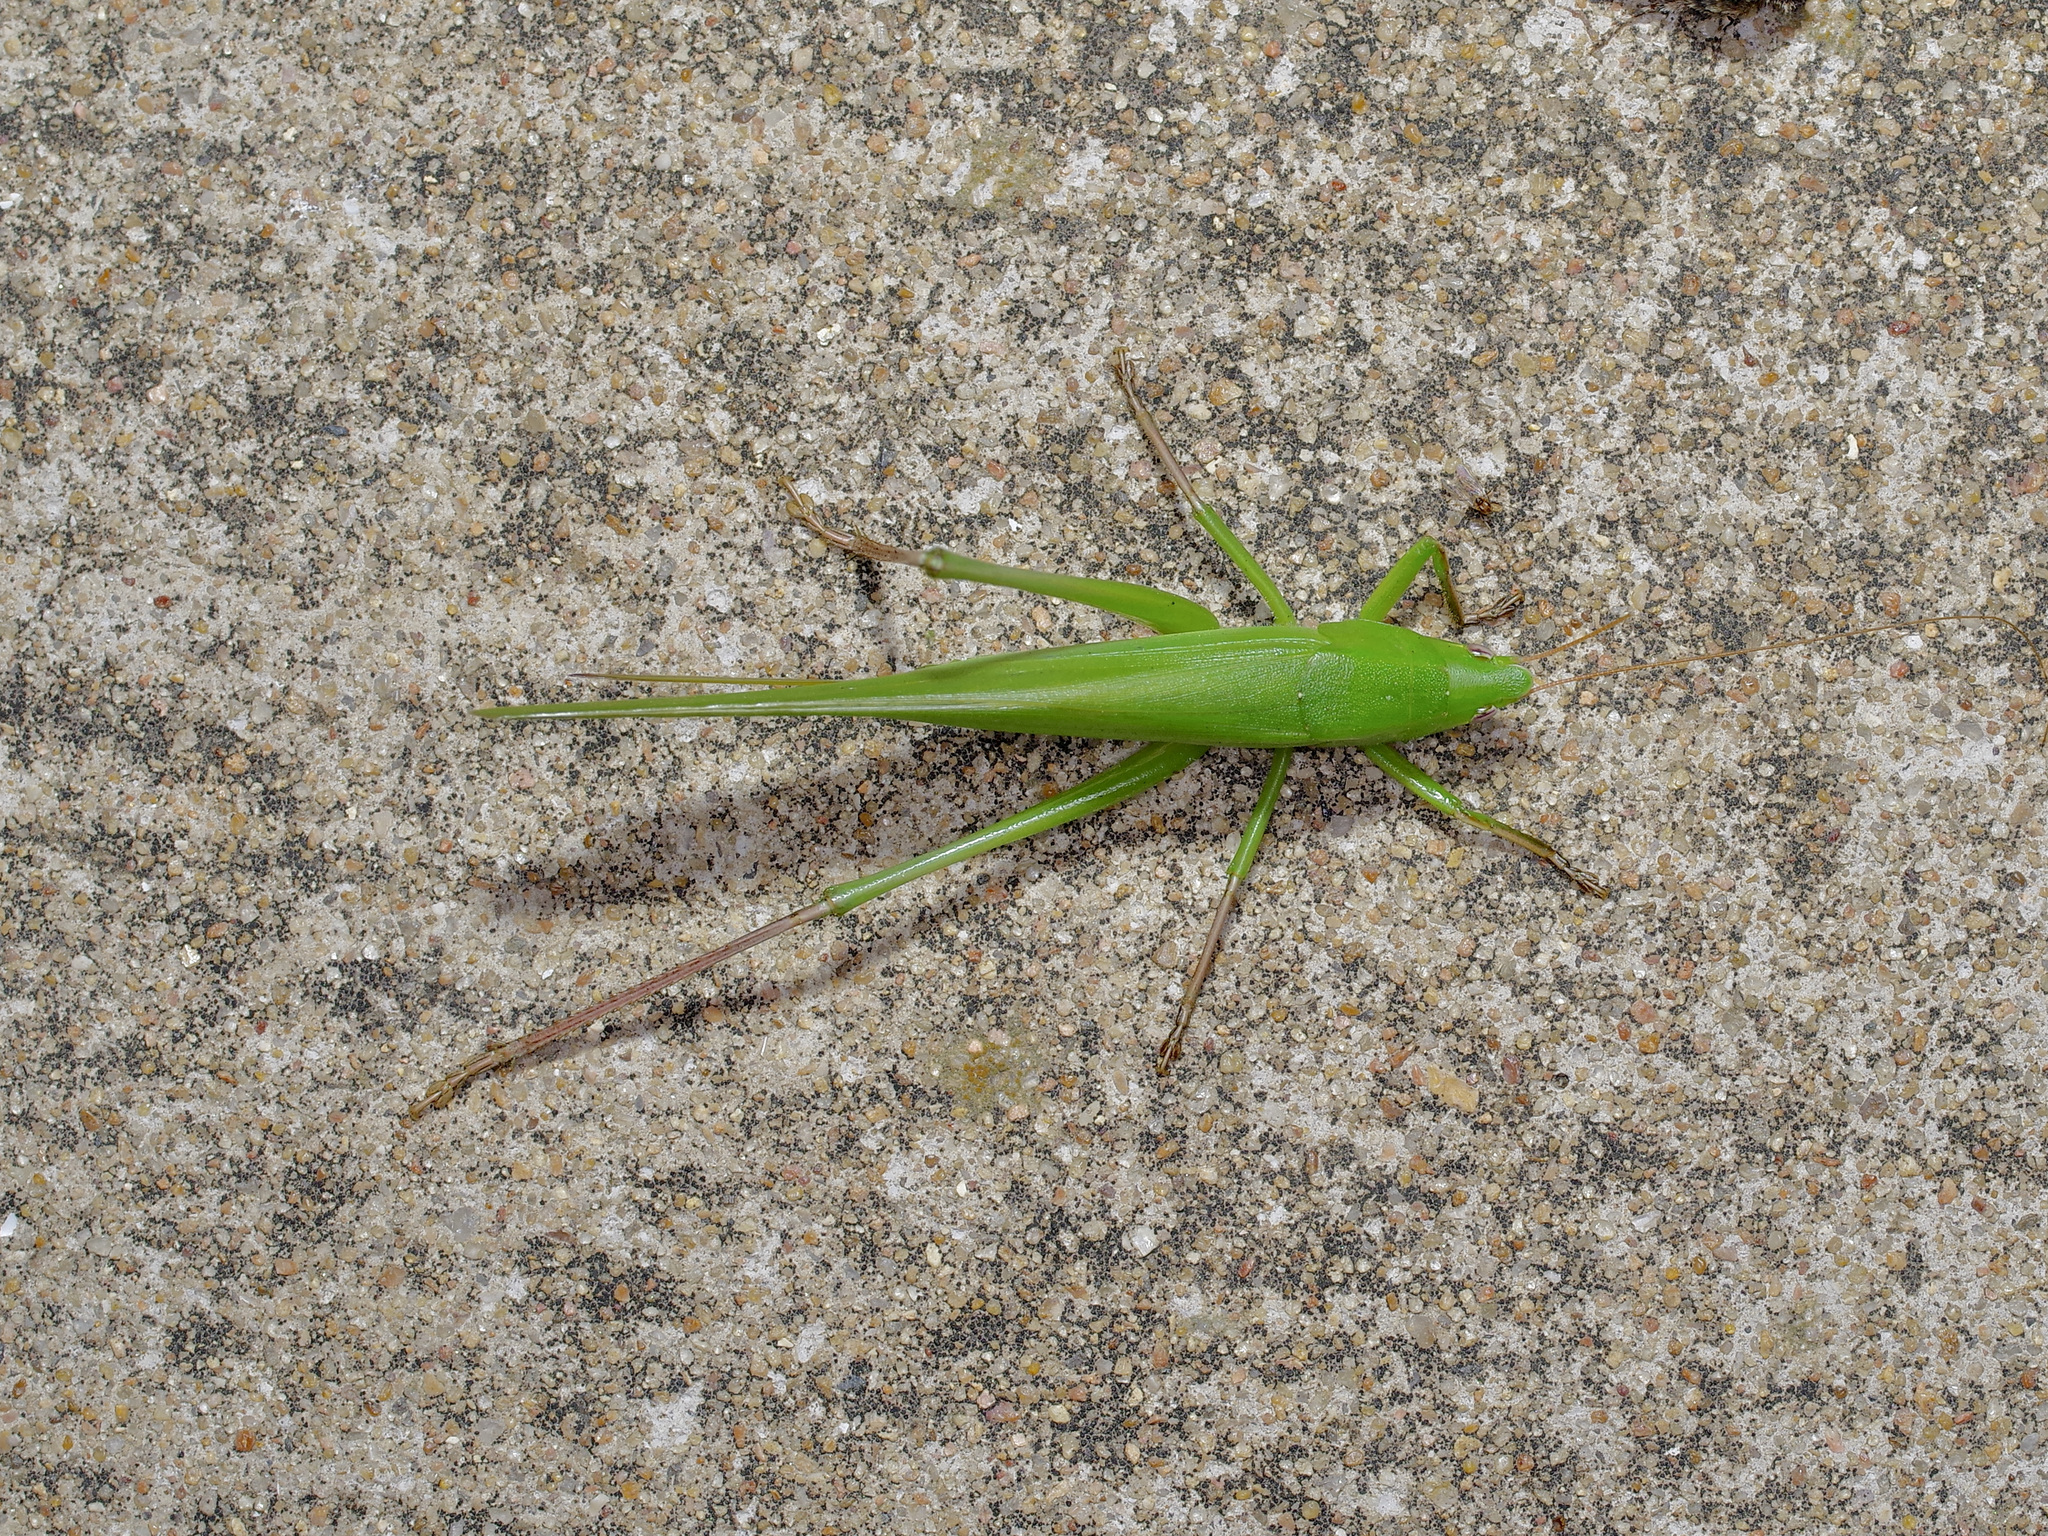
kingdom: Animalia
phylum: Arthropoda
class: Insecta
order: Orthoptera
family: Tettigoniidae
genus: Neoconocephalus
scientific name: Neoconocephalus triops
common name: Broad-tipped conehead
